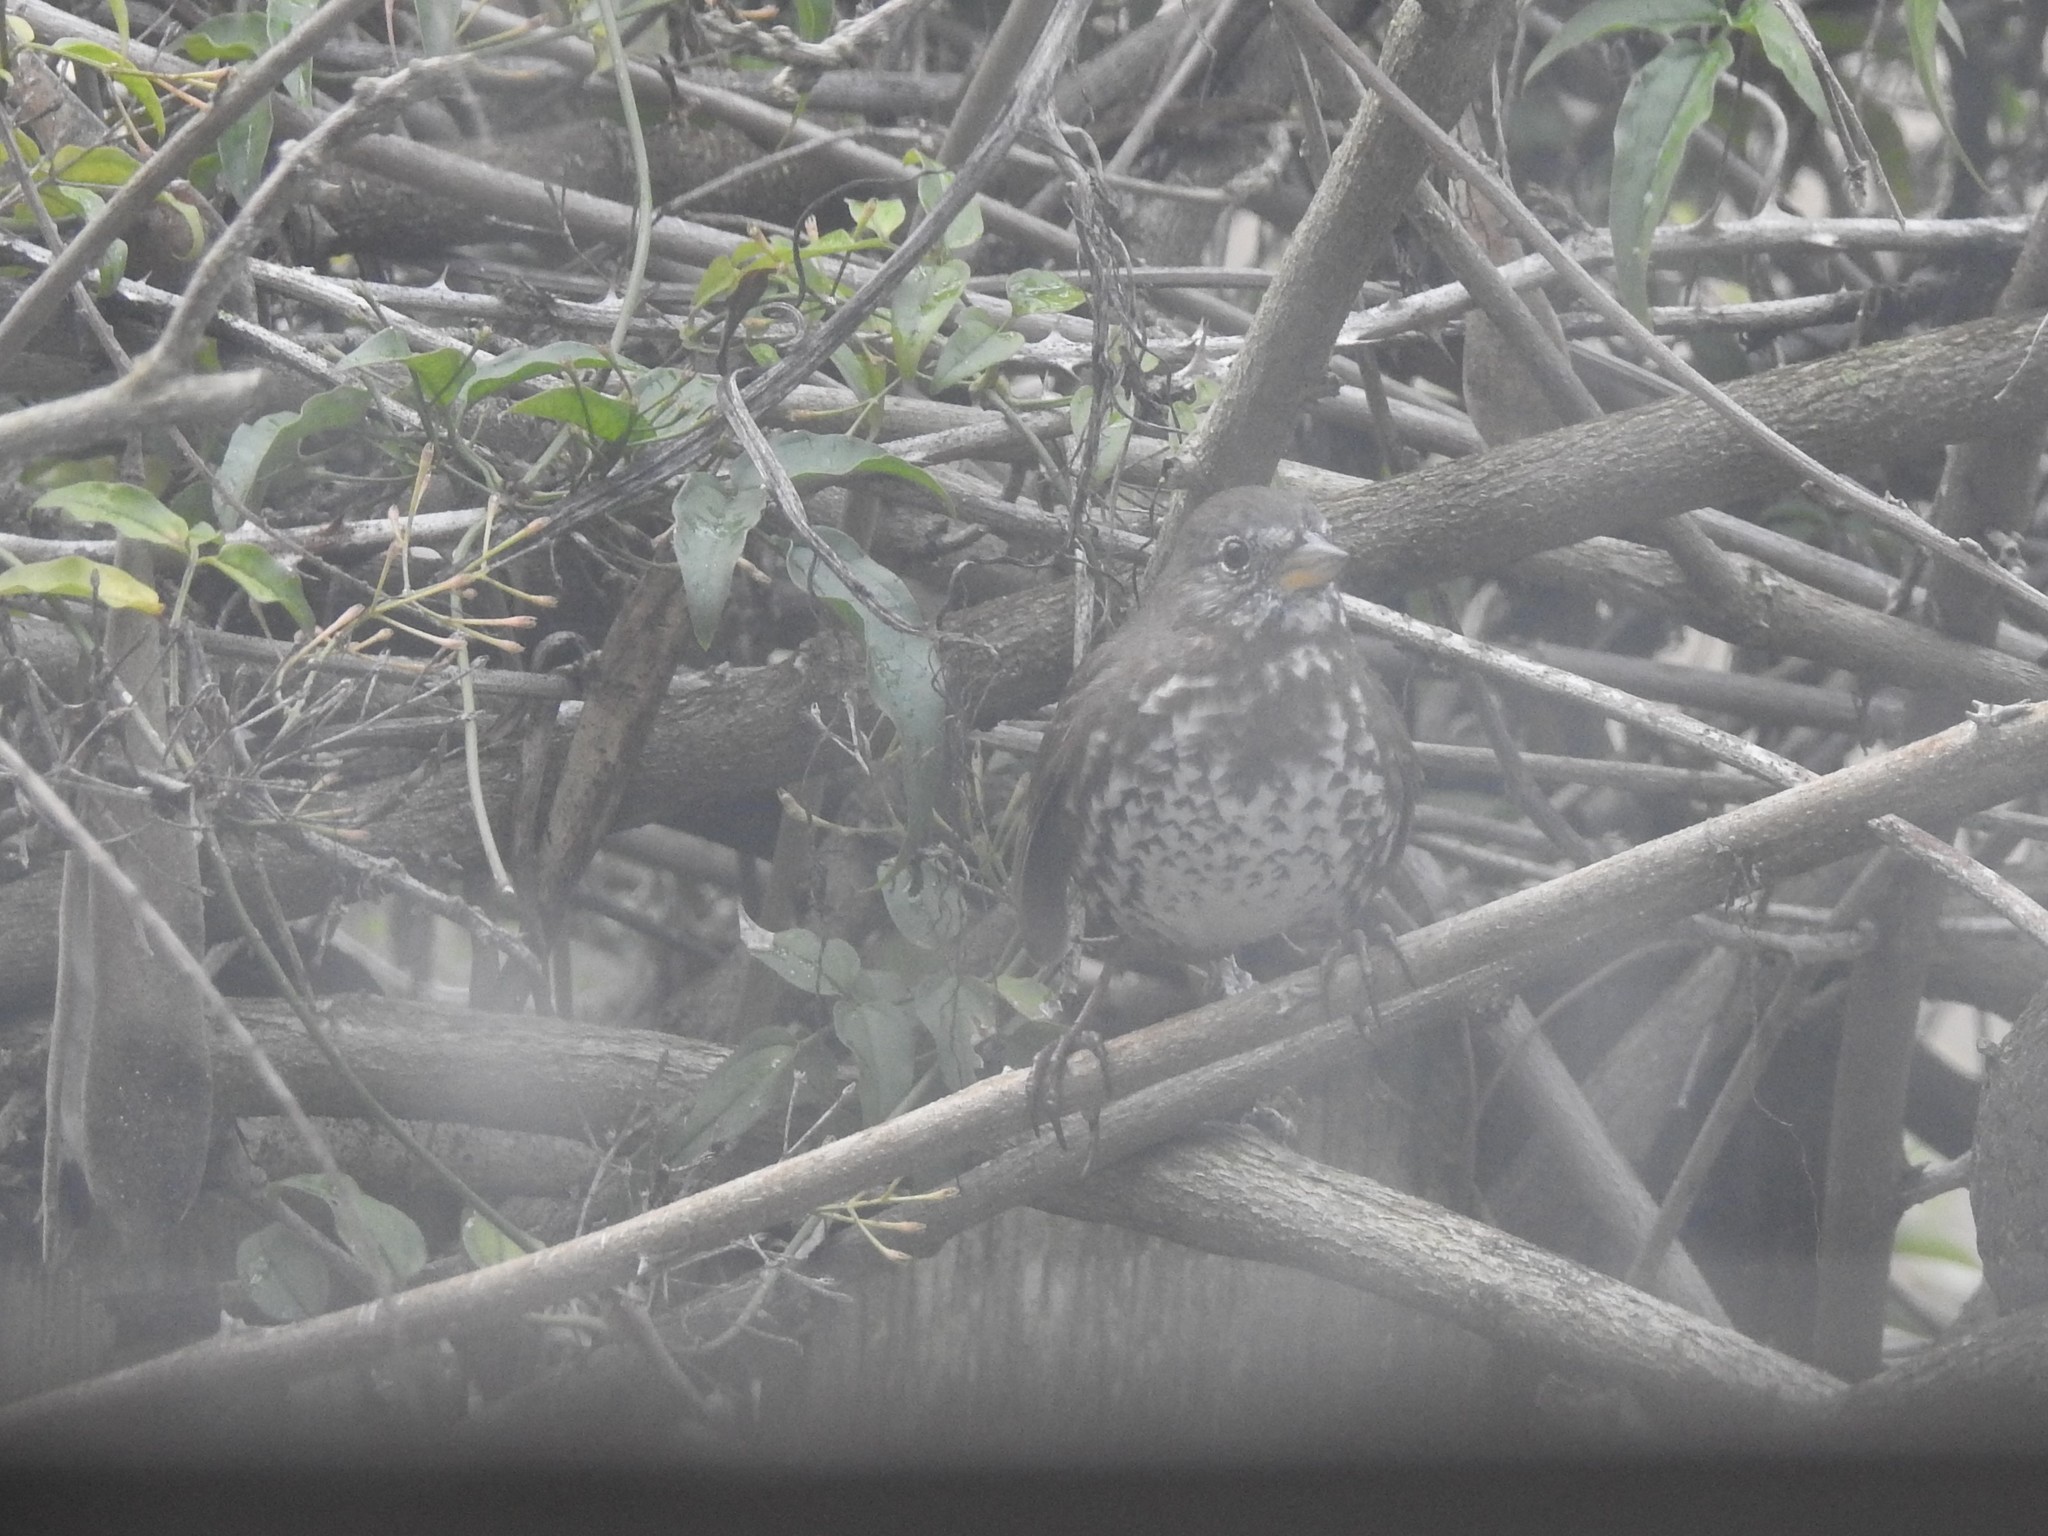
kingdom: Animalia
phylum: Chordata
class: Aves
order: Passeriformes
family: Passerellidae
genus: Passerella
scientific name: Passerella iliaca
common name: Fox sparrow
